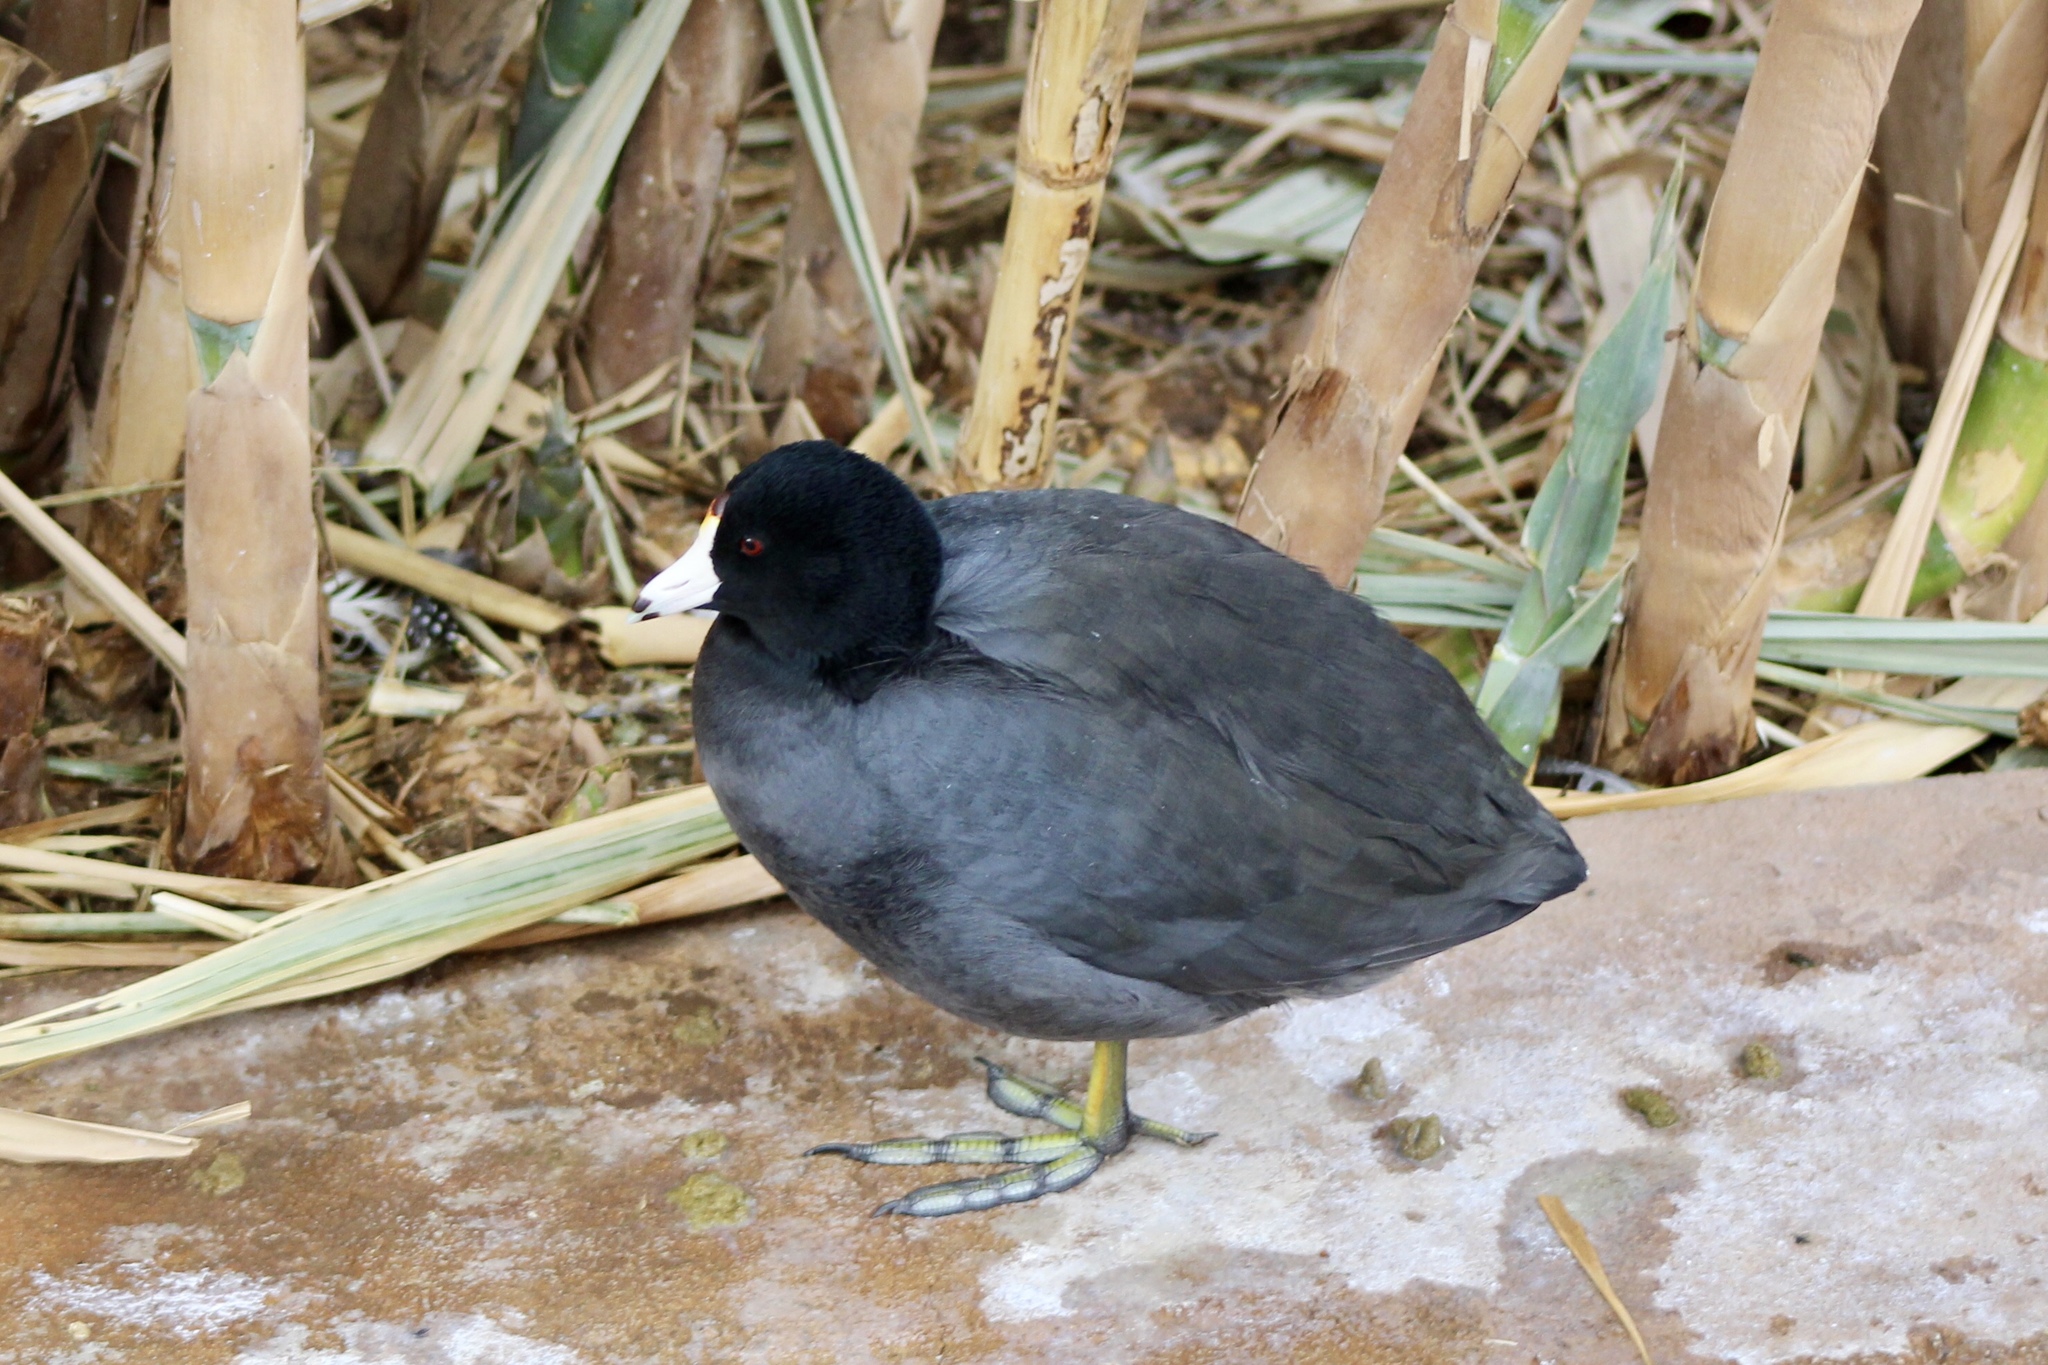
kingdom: Animalia
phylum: Chordata
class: Aves
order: Gruiformes
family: Rallidae
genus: Fulica
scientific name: Fulica americana
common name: American coot
